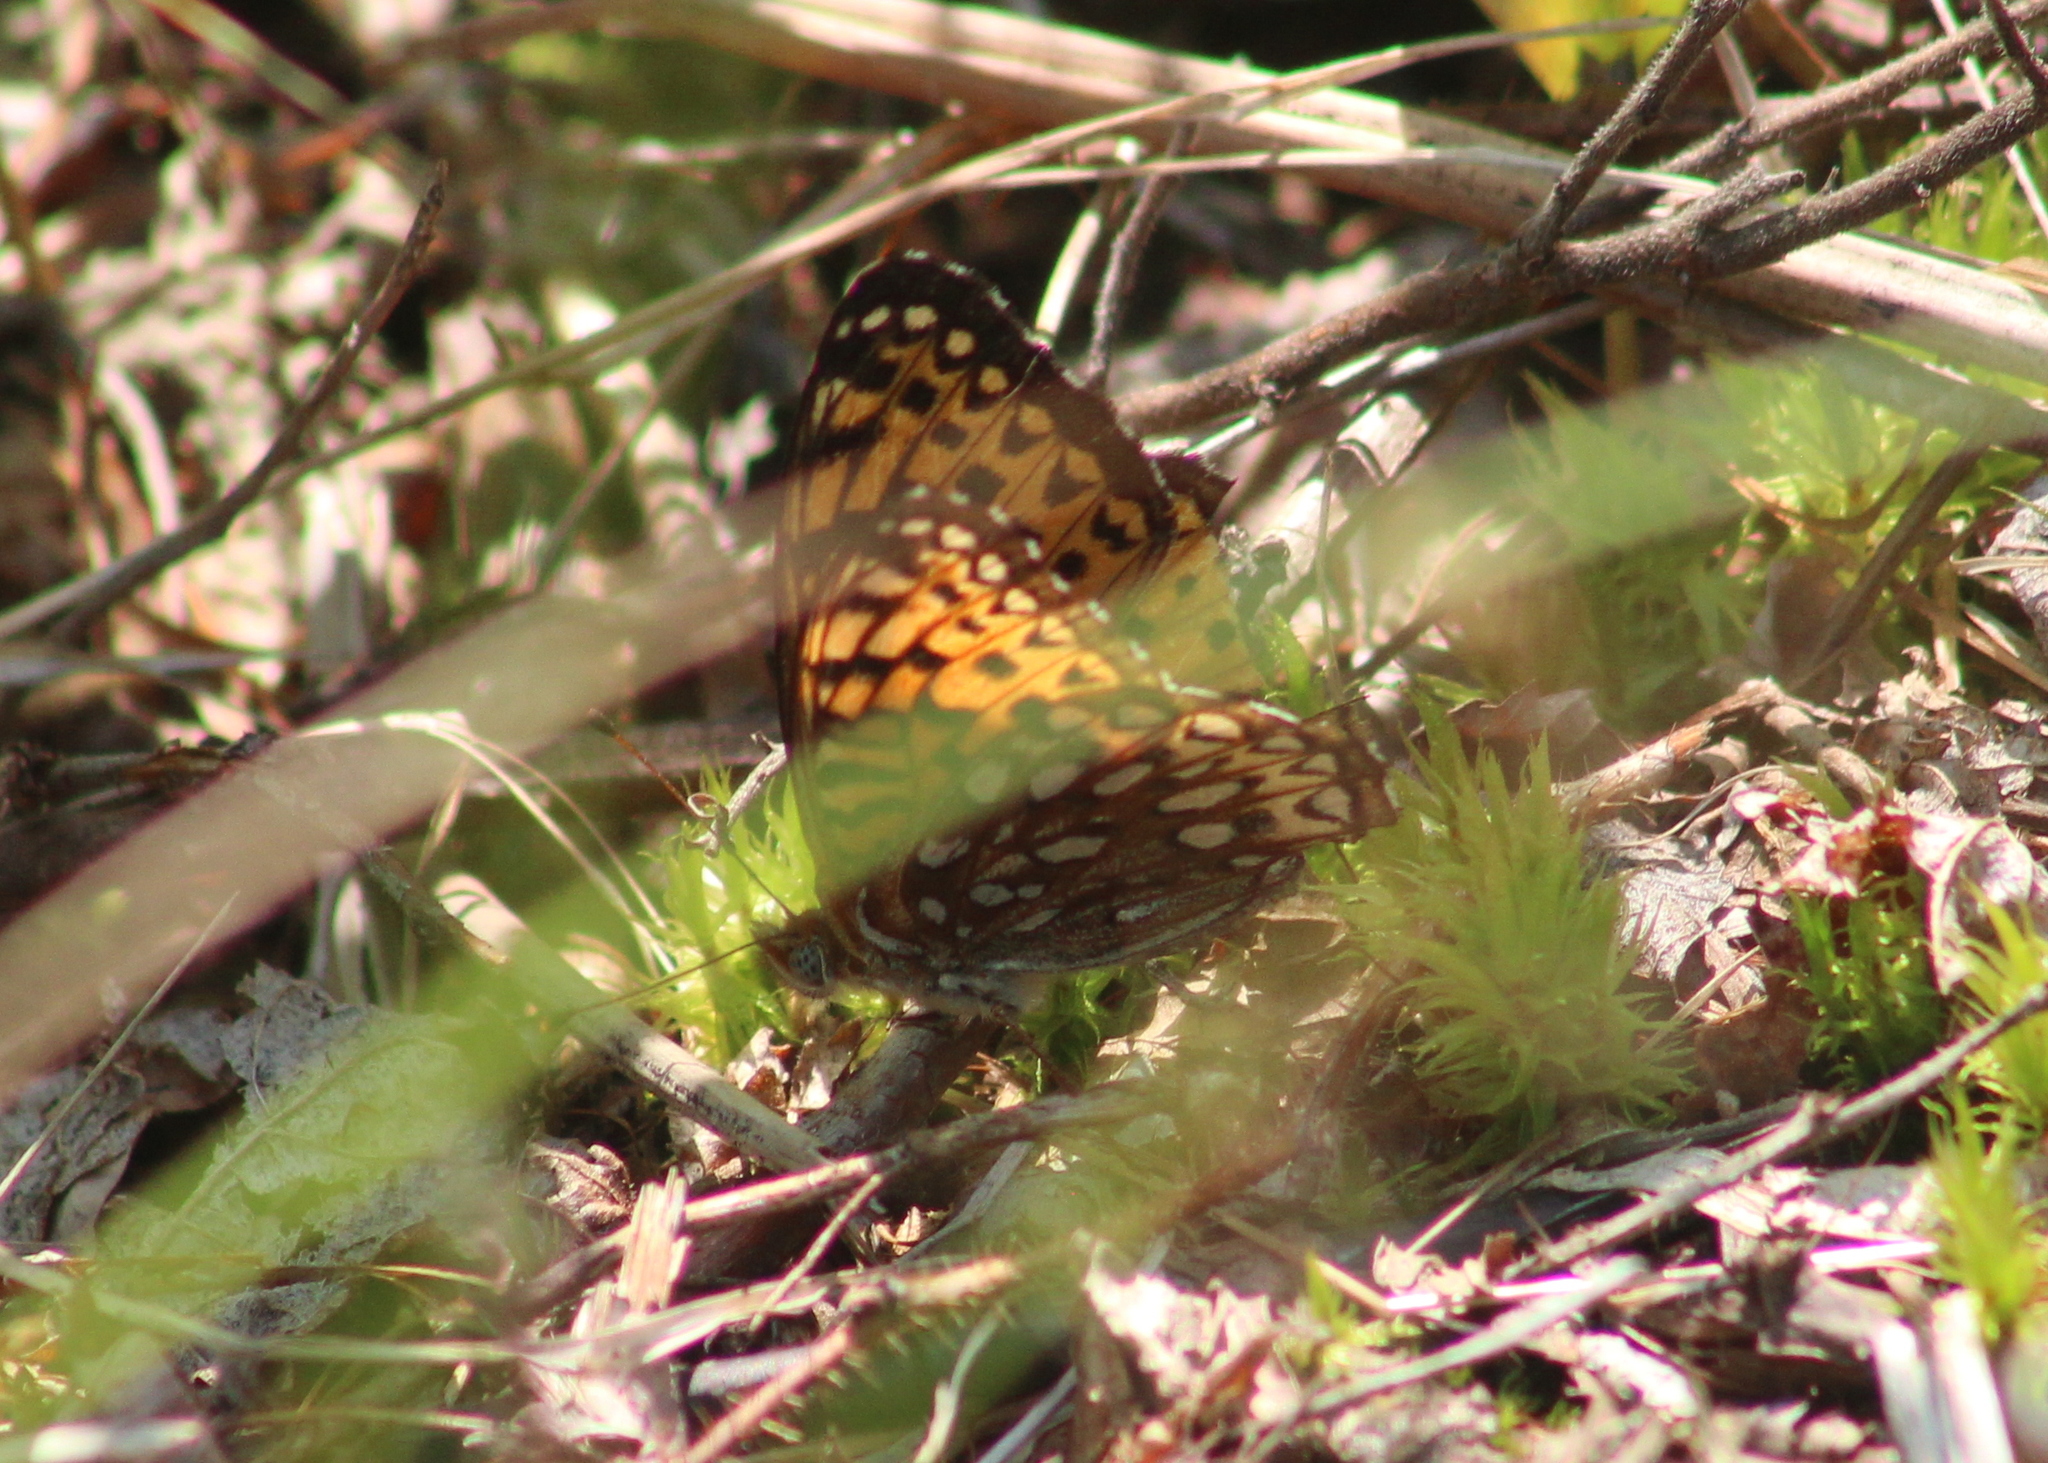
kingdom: Animalia
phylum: Arthropoda
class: Insecta
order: Lepidoptera
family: Nymphalidae
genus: Speyeria
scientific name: Speyeria atlantis
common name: Atlantis fritillary
